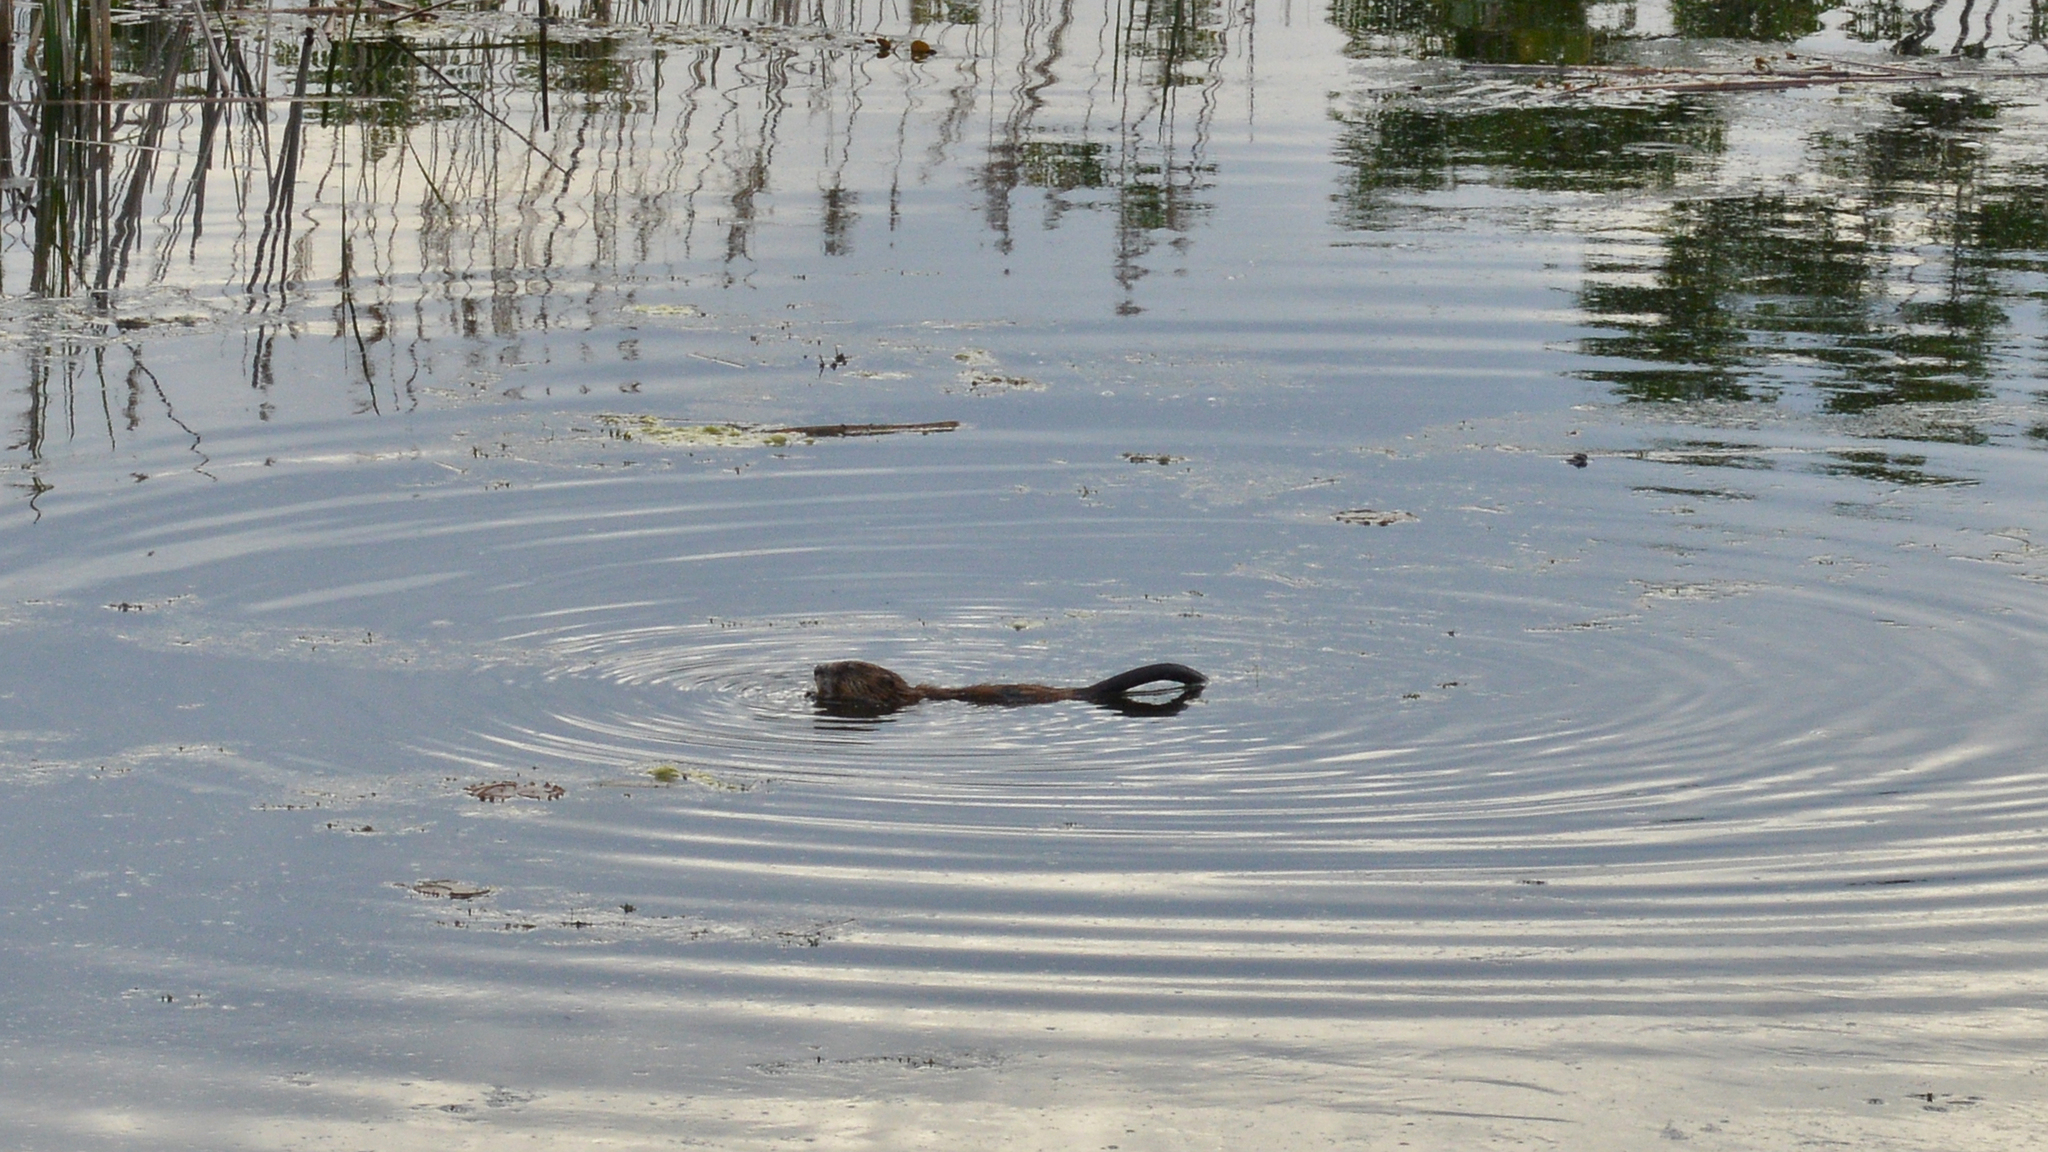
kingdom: Animalia
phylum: Chordata
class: Mammalia
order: Rodentia
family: Cricetidae
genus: Ondatra
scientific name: Ondatra zibethicus
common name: Muskrat
